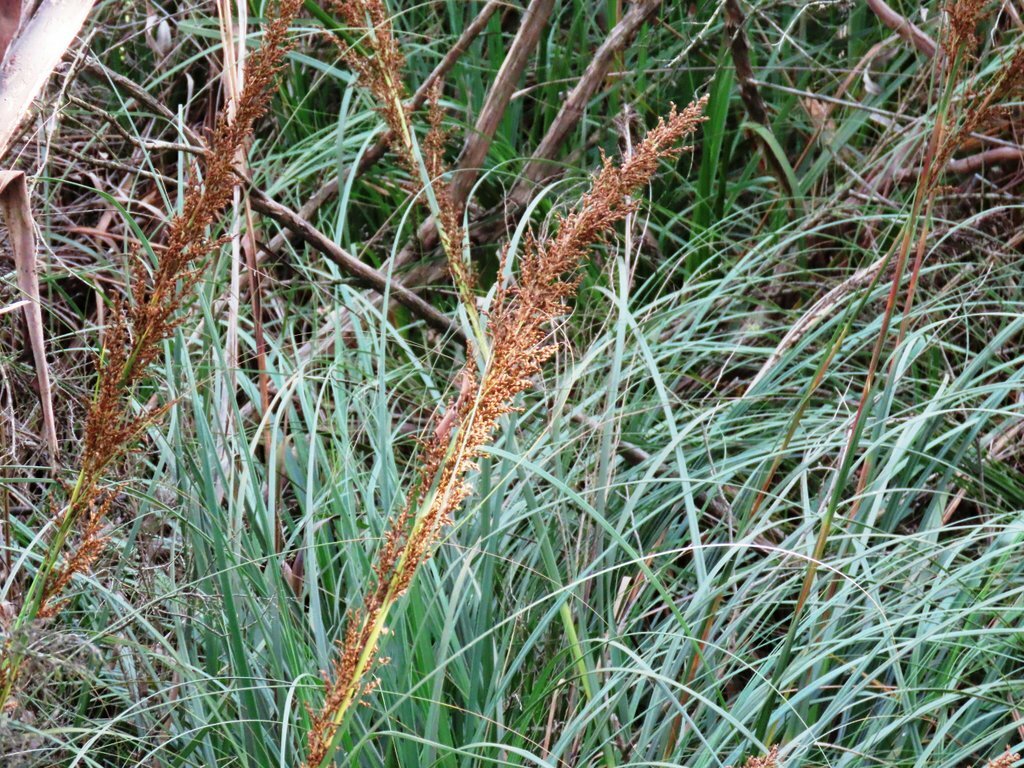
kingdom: Plantae
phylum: Tracheophyta
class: Liliopsida
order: Poales
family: Cyperaceae
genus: Gahnia
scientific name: Gahnia sieberiana
